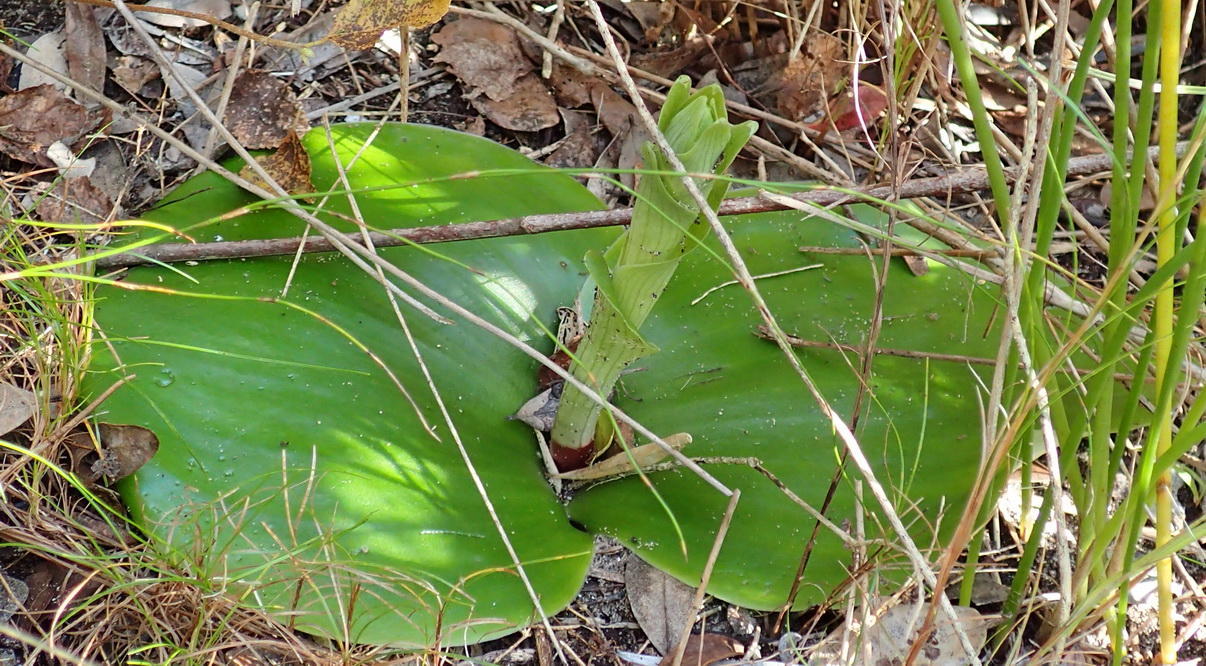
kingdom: Plantae
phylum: Tracheophyta
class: Liliopsida
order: Asparagales
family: Orchidaceae
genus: Satyrium
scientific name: Satyrium princeps
